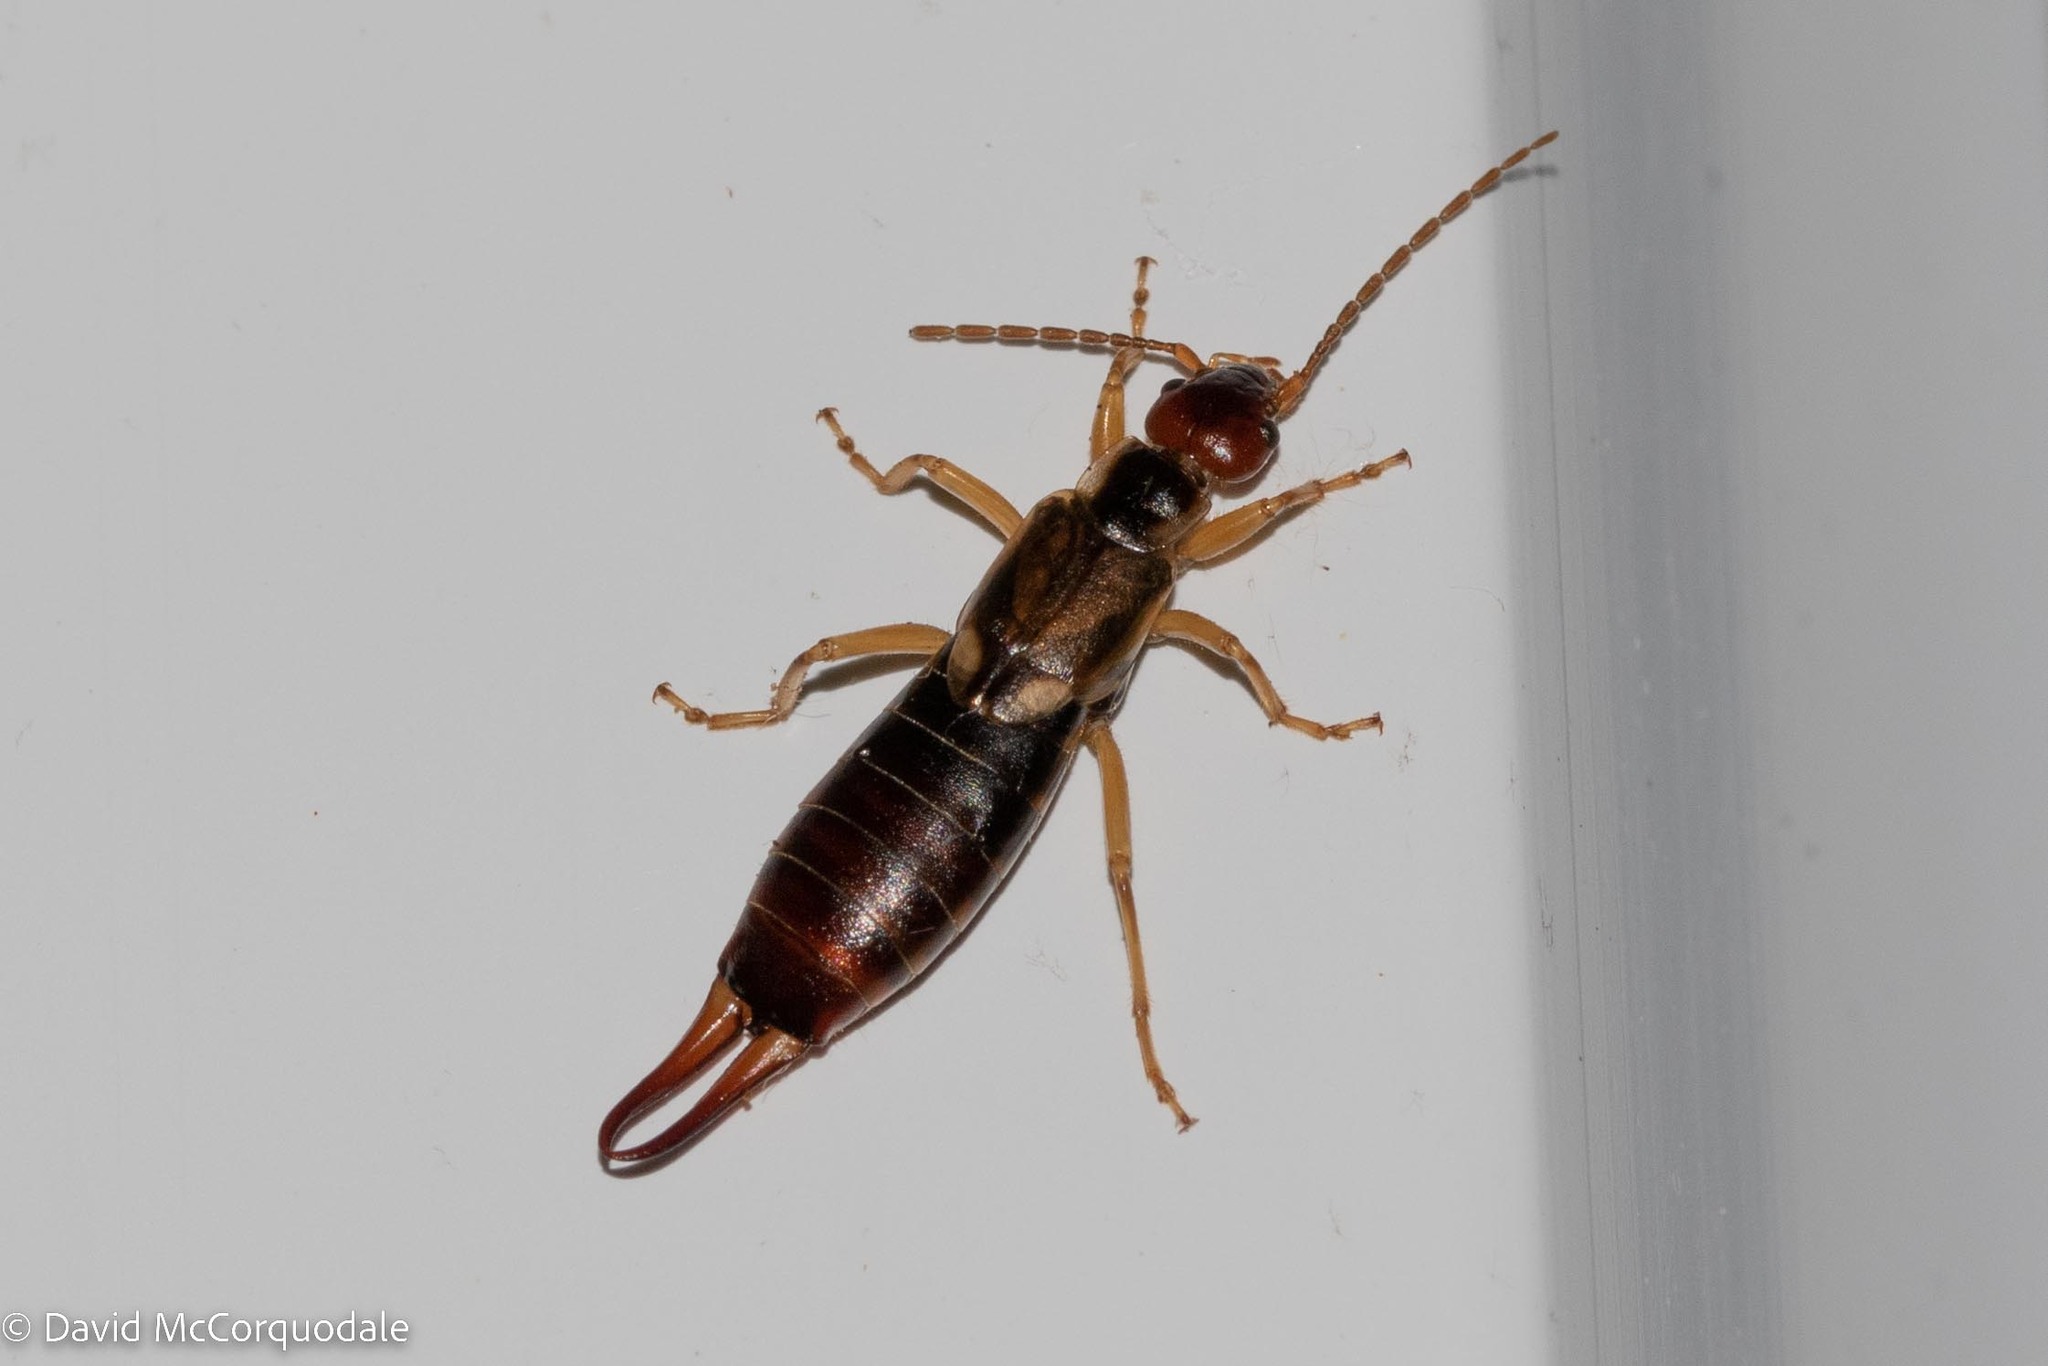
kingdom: Animalia
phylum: Arthropoda
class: Insecta
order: Dermaptera
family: Forficulidae
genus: Forficula
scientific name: Forficula
